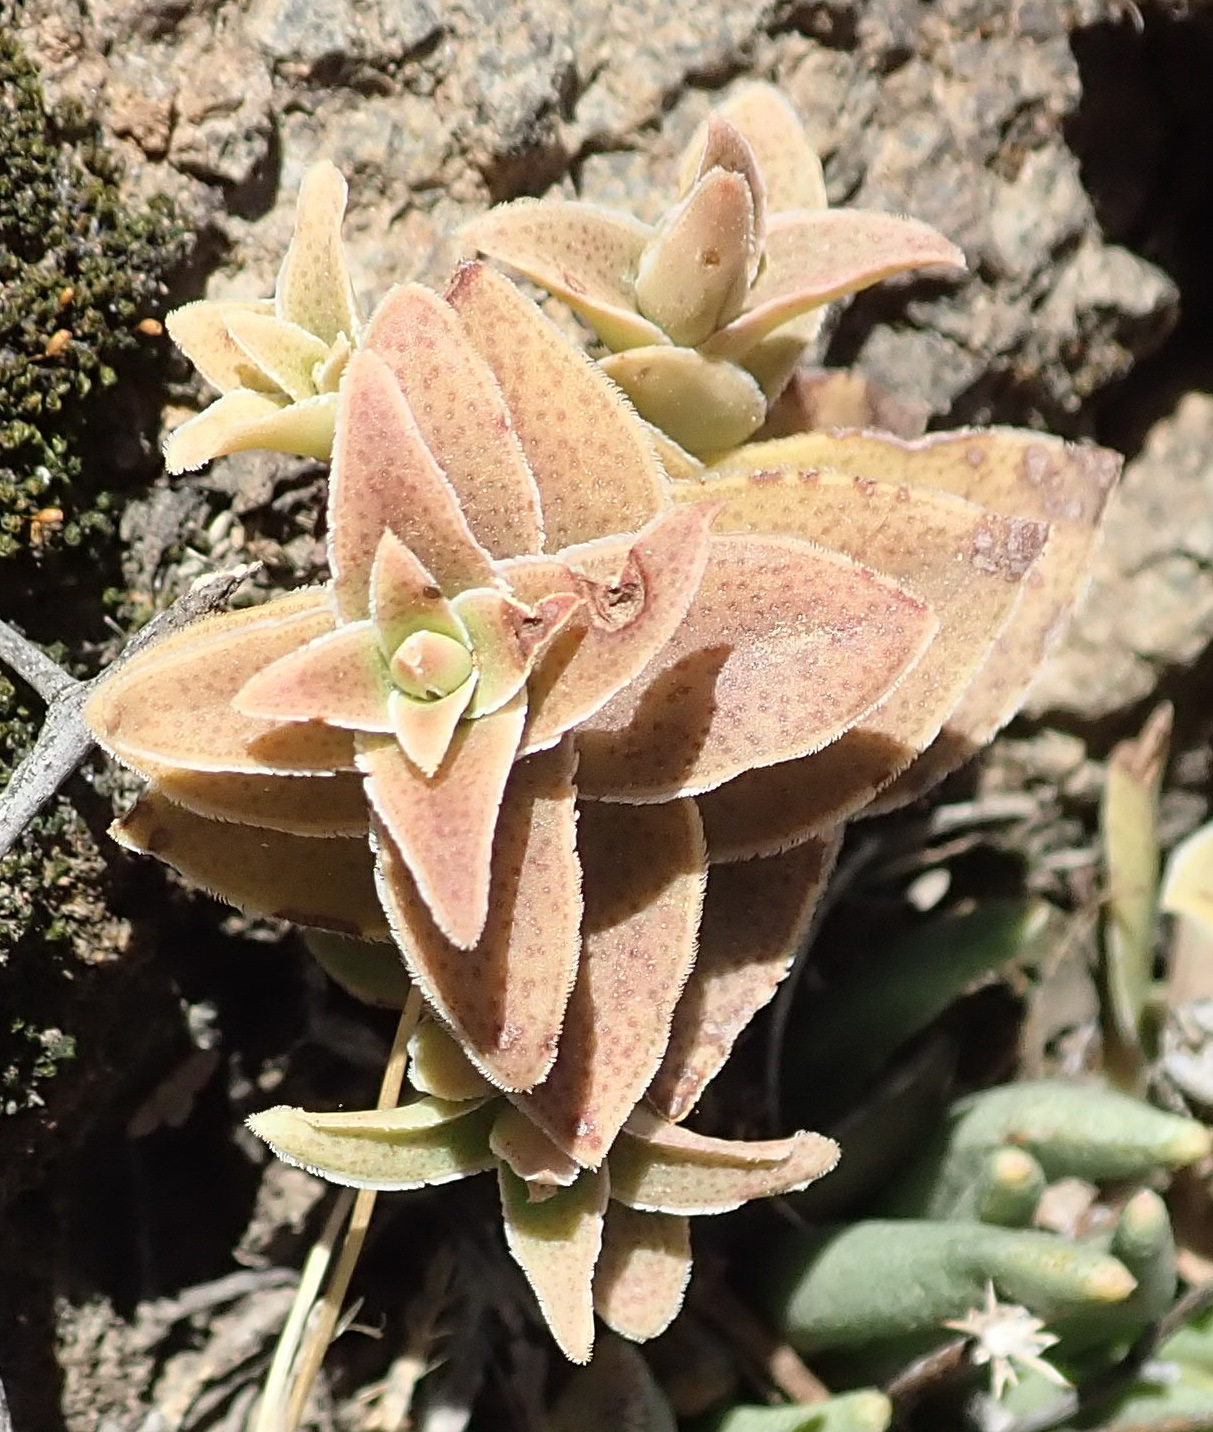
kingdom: Plantae
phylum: Tracheophyta
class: Magnoliopsida
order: Saxifragales
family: Crassulaceae
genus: Crassula
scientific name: Crassula tabularis
